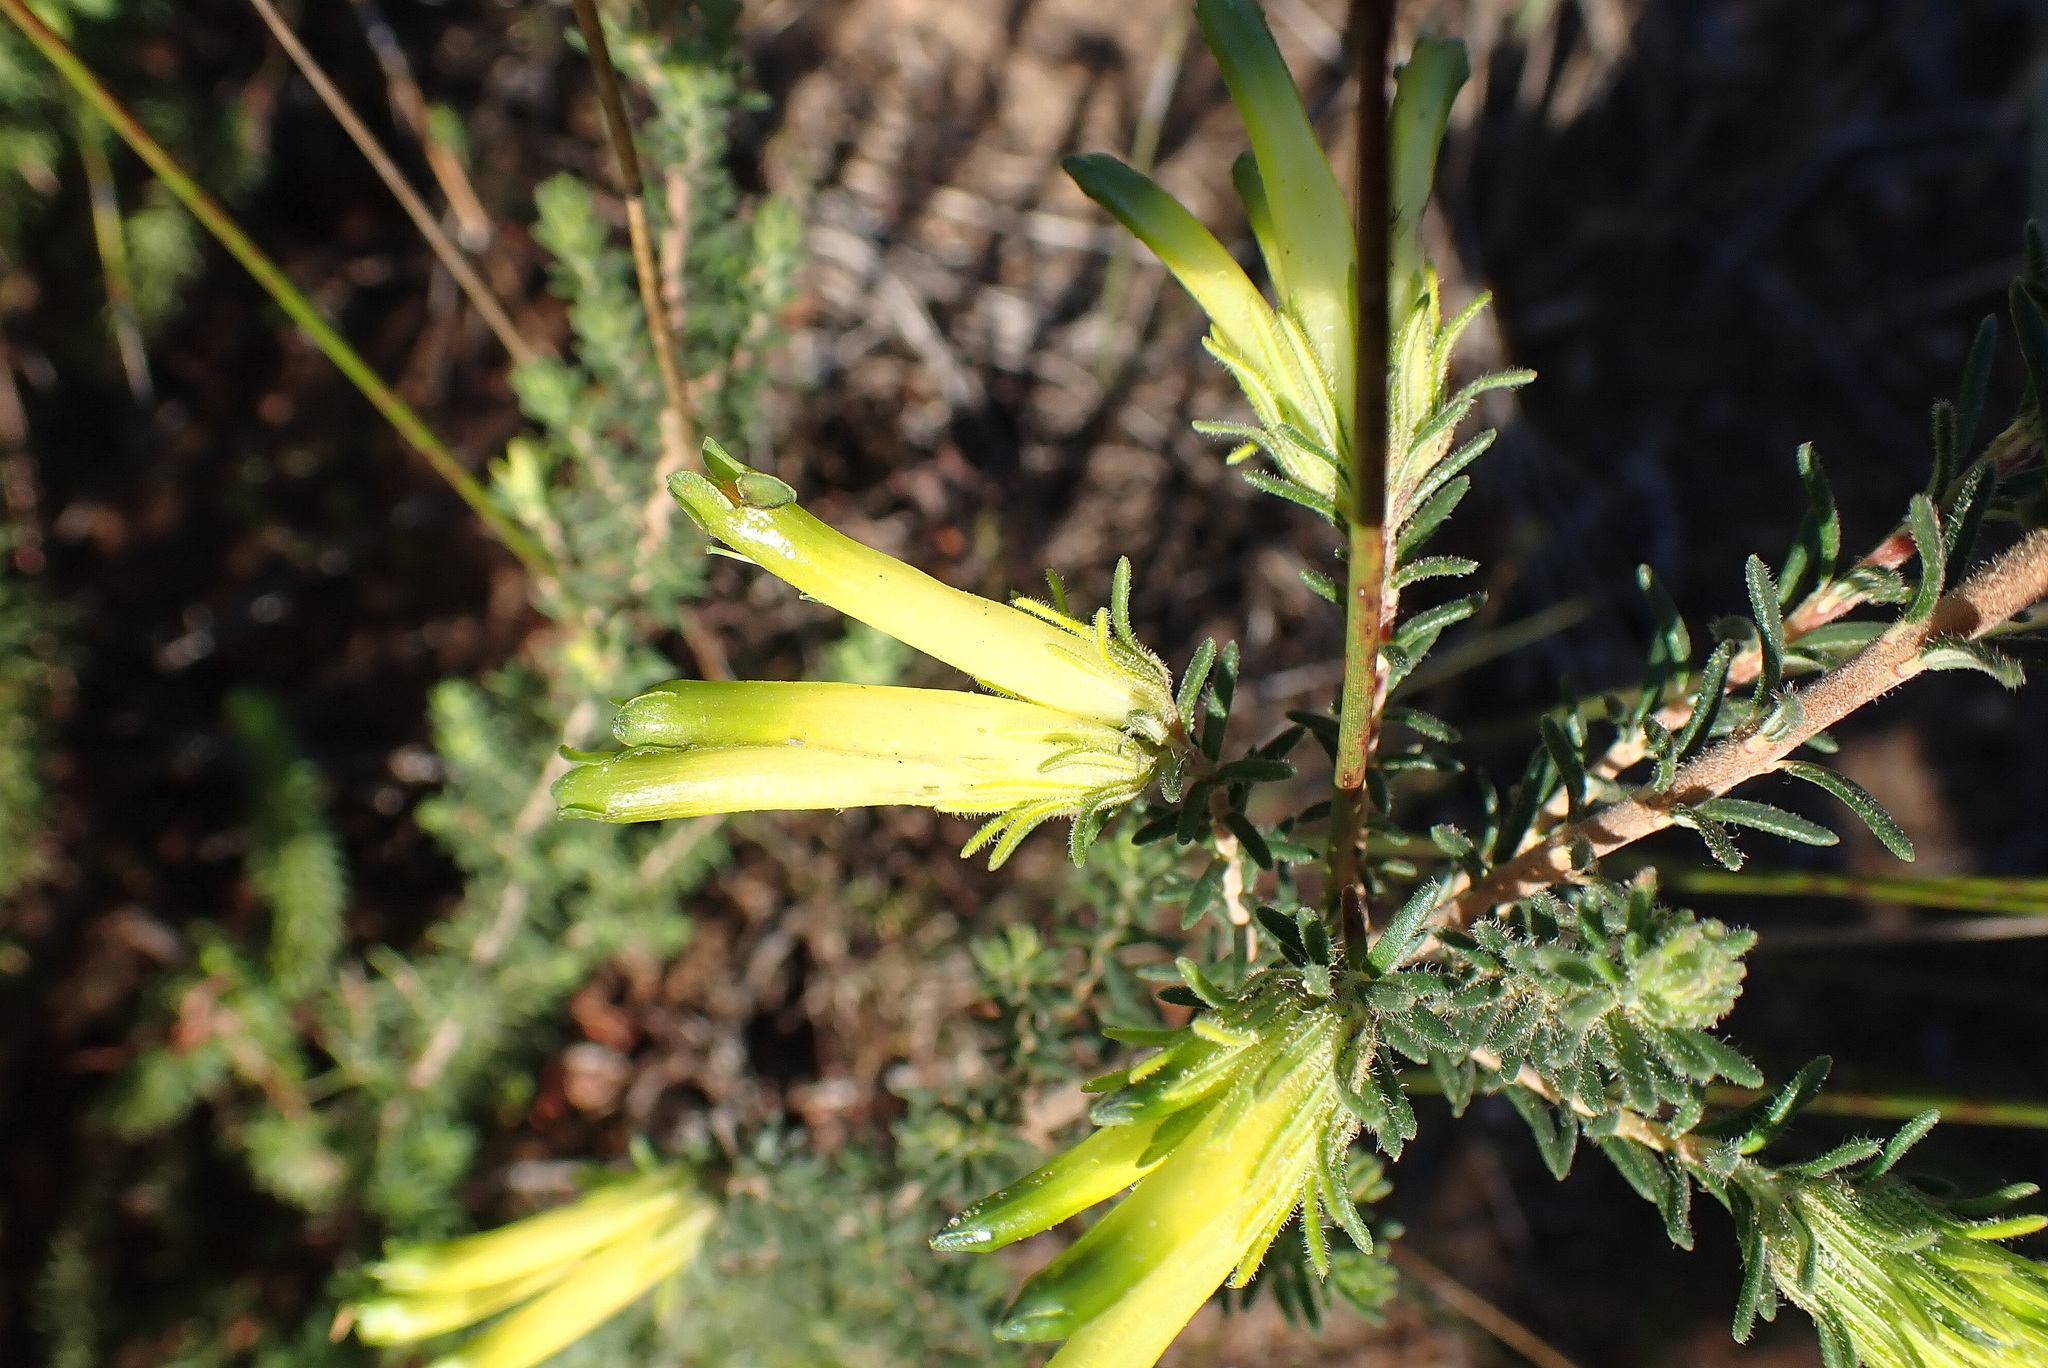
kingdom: Plantae
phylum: Tracheophyta
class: Magnoliopsida
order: Ericales
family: Ericaceae
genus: Erica
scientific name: Erica unicolor
